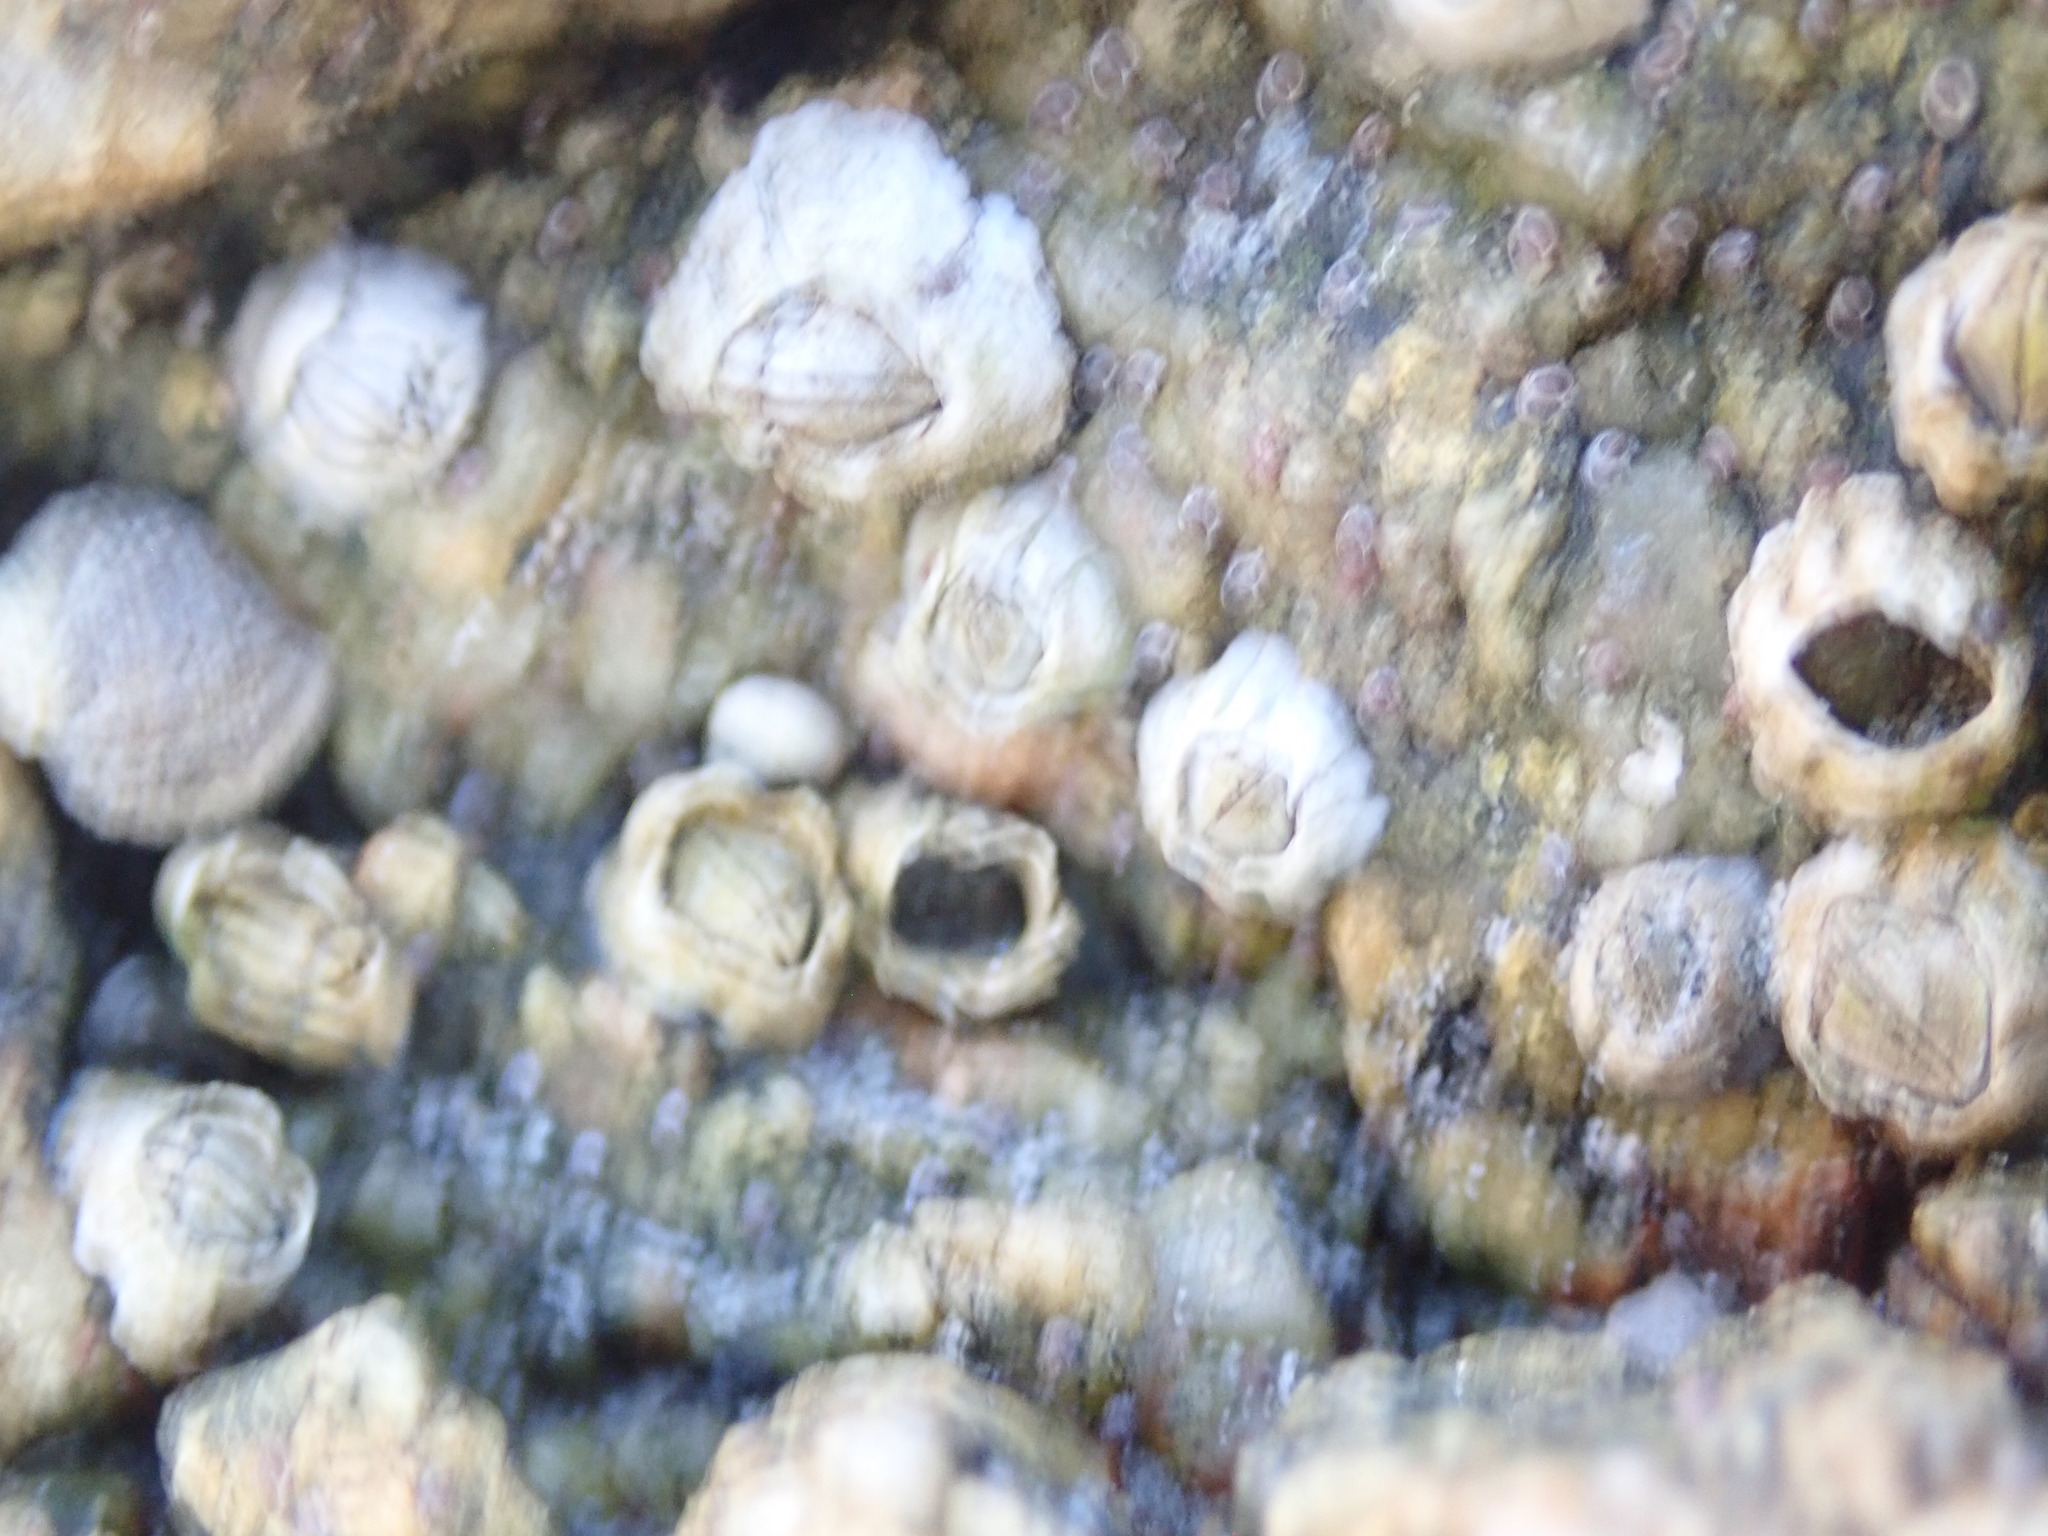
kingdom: Animalia
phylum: Arthropoda
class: Maxillopoda
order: Sessilia
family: Archaeobalanidae
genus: Semibalanus
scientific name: Semibalanus balanoides
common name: Acorn barnacle
